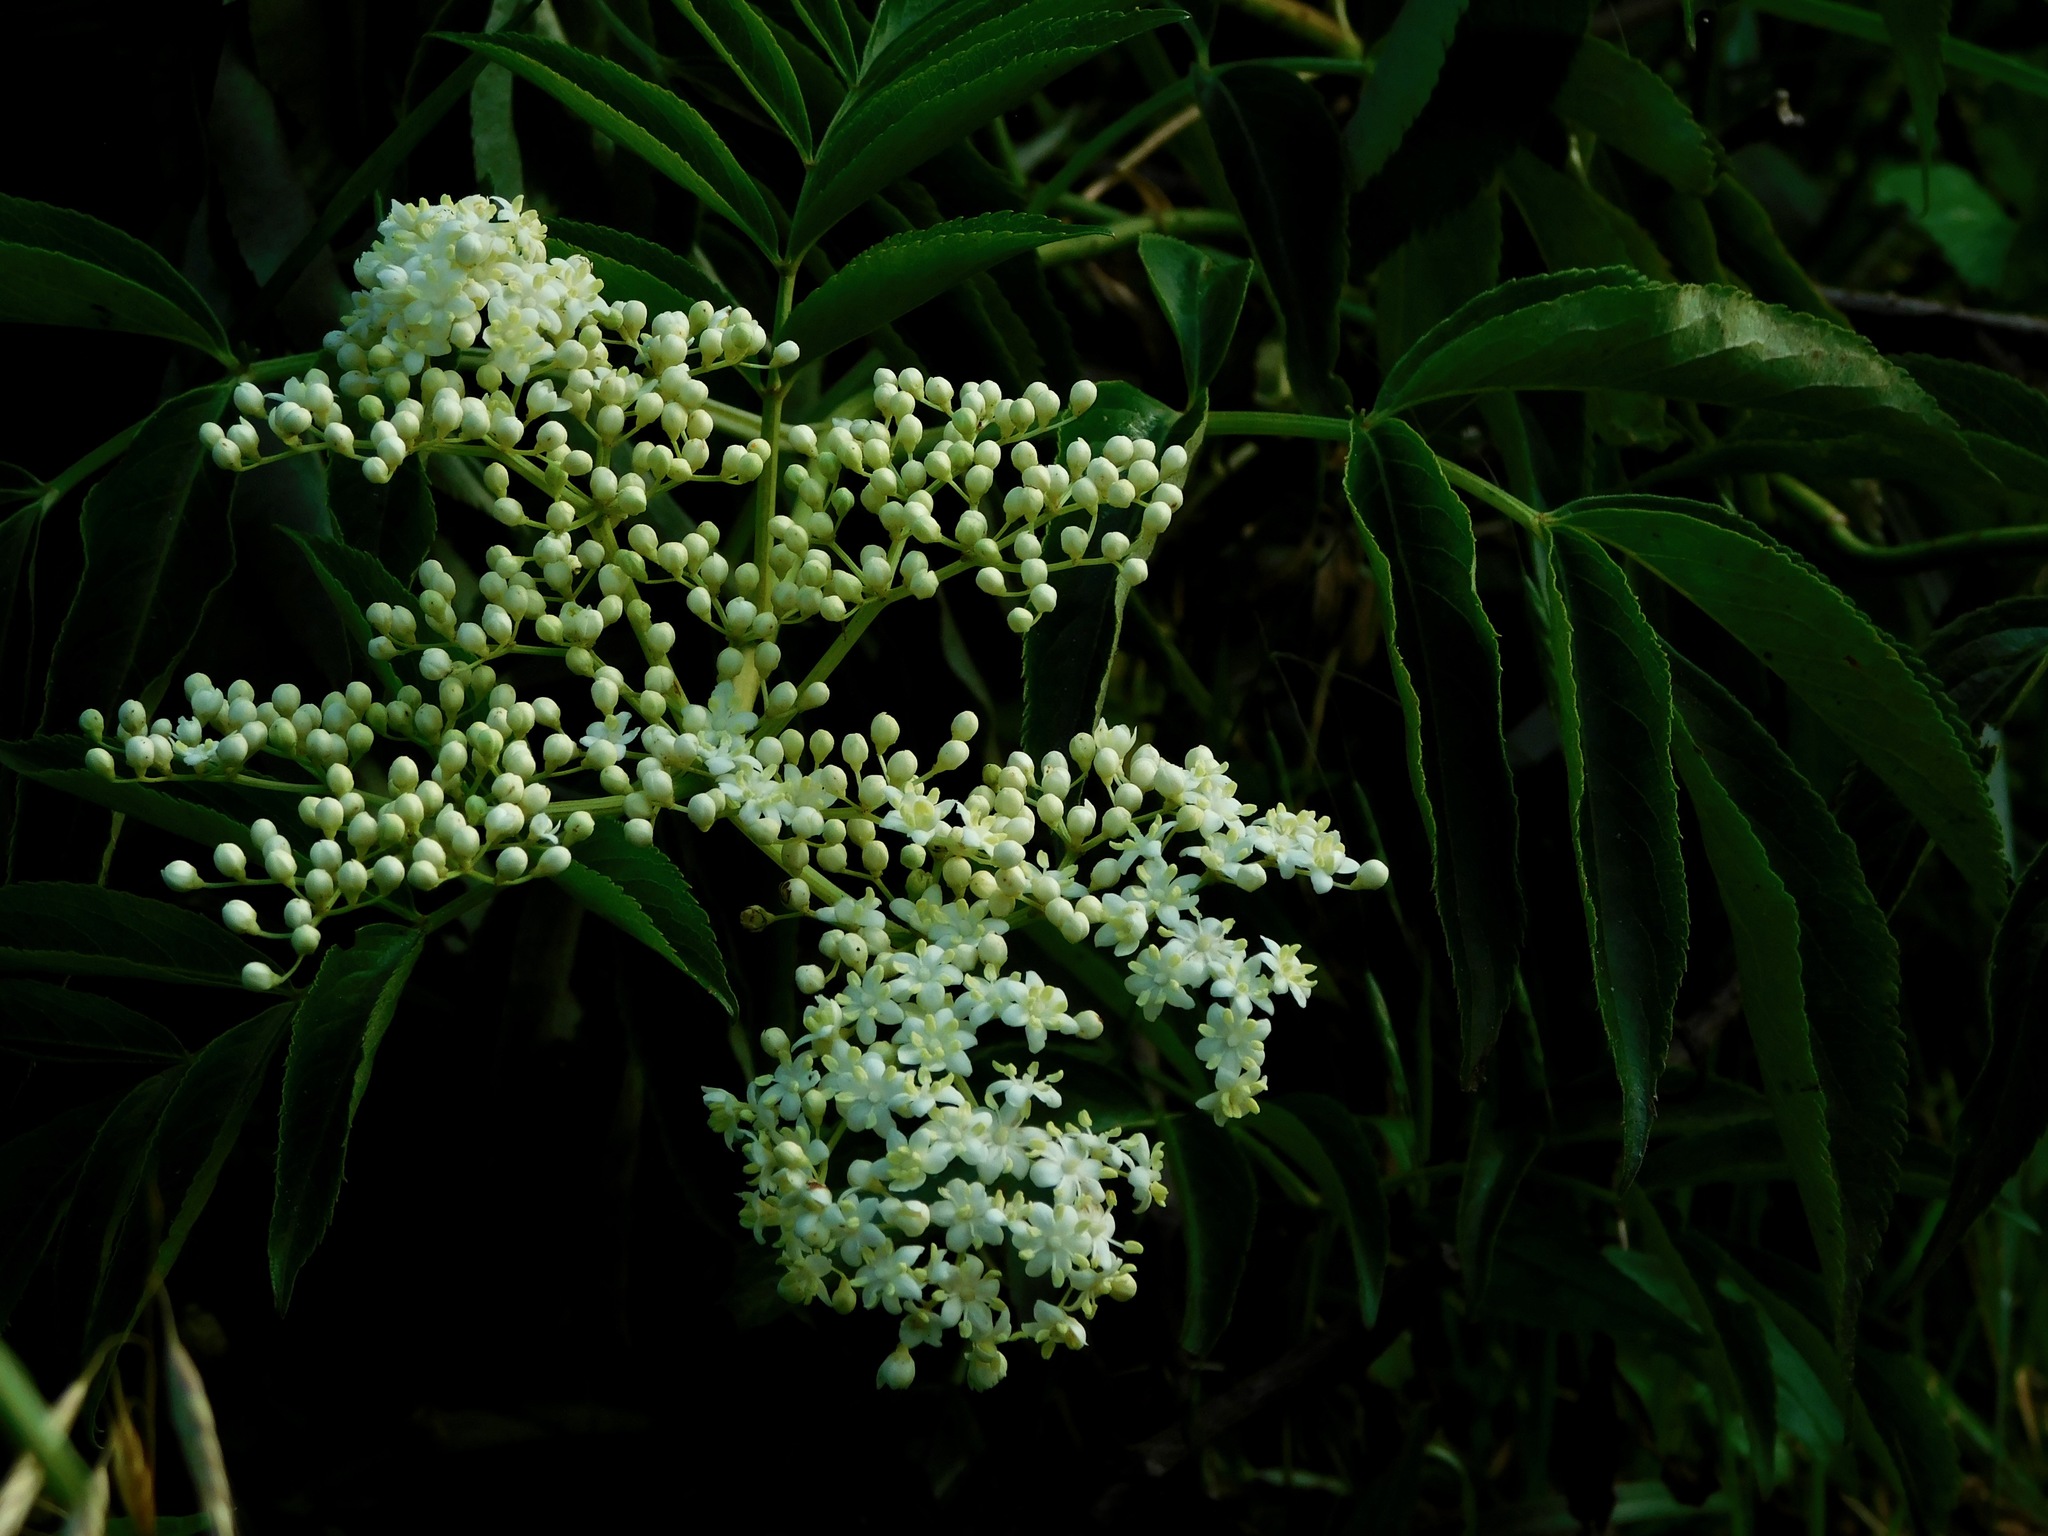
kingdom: Plantae
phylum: Tracheophyta
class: Magnoliopsida
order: Dipsacales
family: Viburnaceae
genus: Sambucus
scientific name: Sambucus canadensis
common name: American elder
